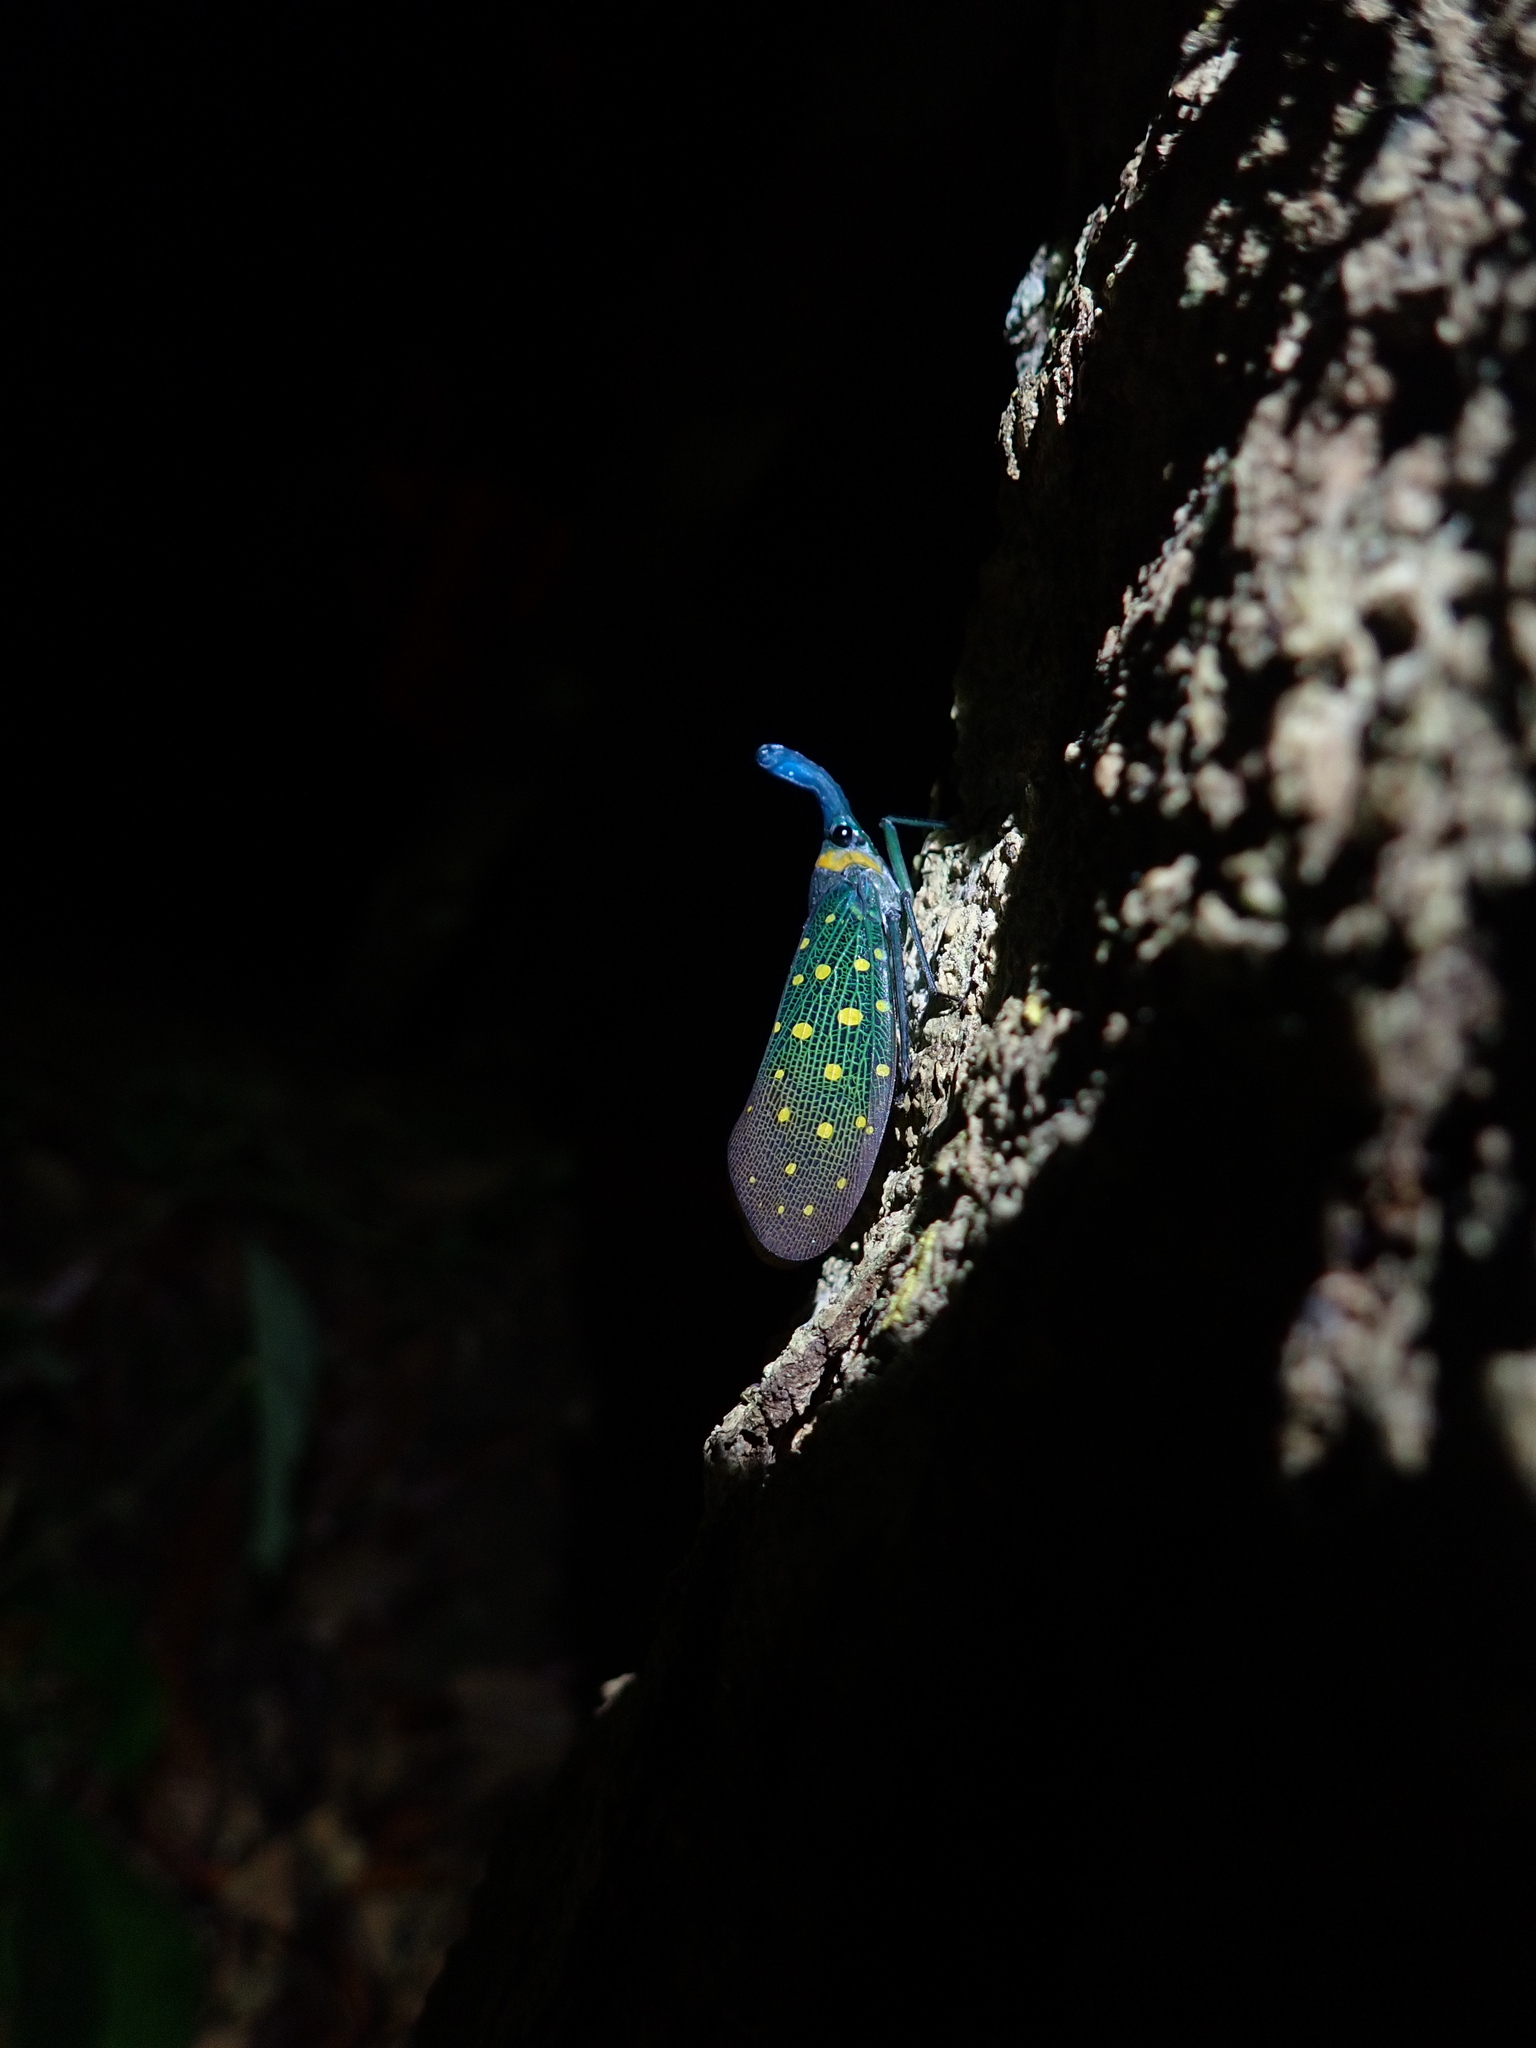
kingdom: Animalia
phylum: Arthropoda
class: Insecta
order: Hemiptera
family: Fulgoridae
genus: Pyrops
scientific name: Pyrops whiteheadi
